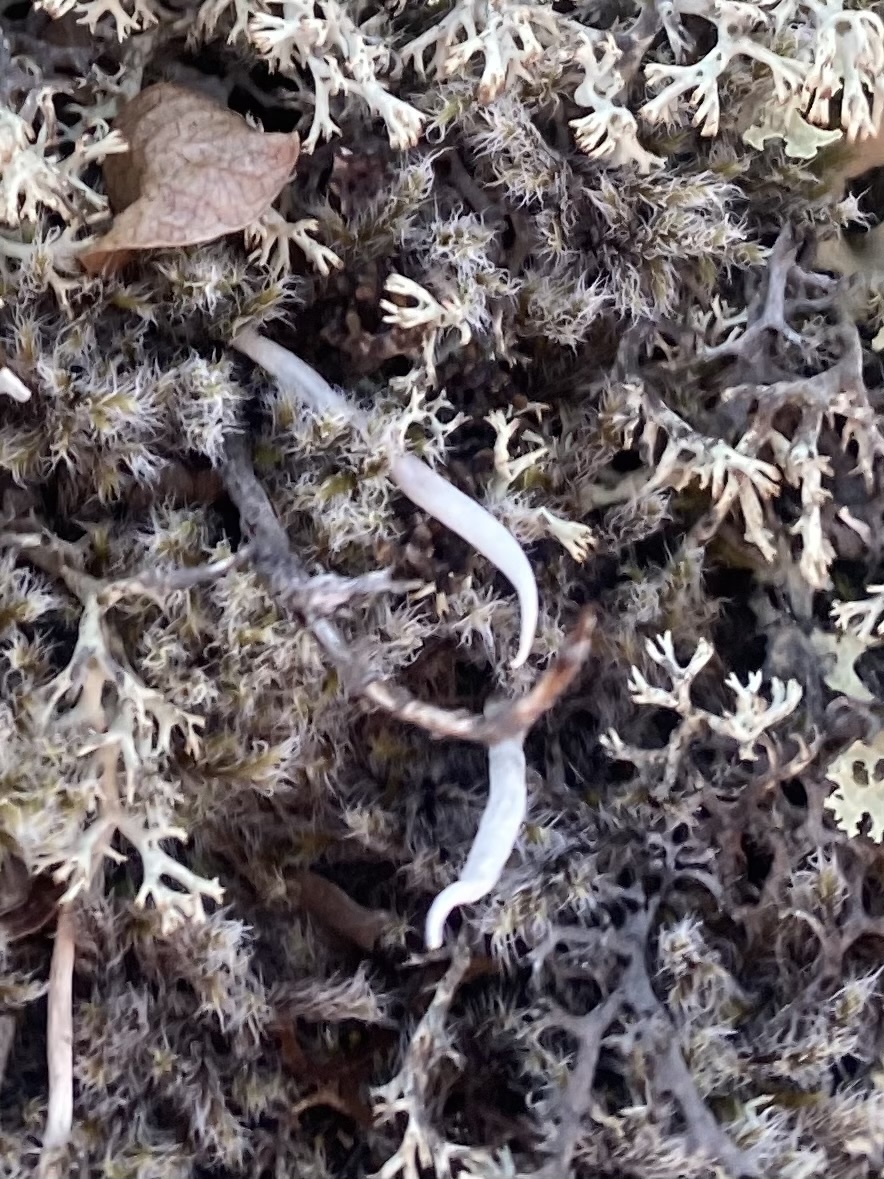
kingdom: Fungi
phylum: Ascomycota
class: Lecanoromycetes
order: Pertusariales
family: Icmadophilaceae
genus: Thamnolia
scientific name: Thamnolia vermicularis
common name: Whiteworm lichen
